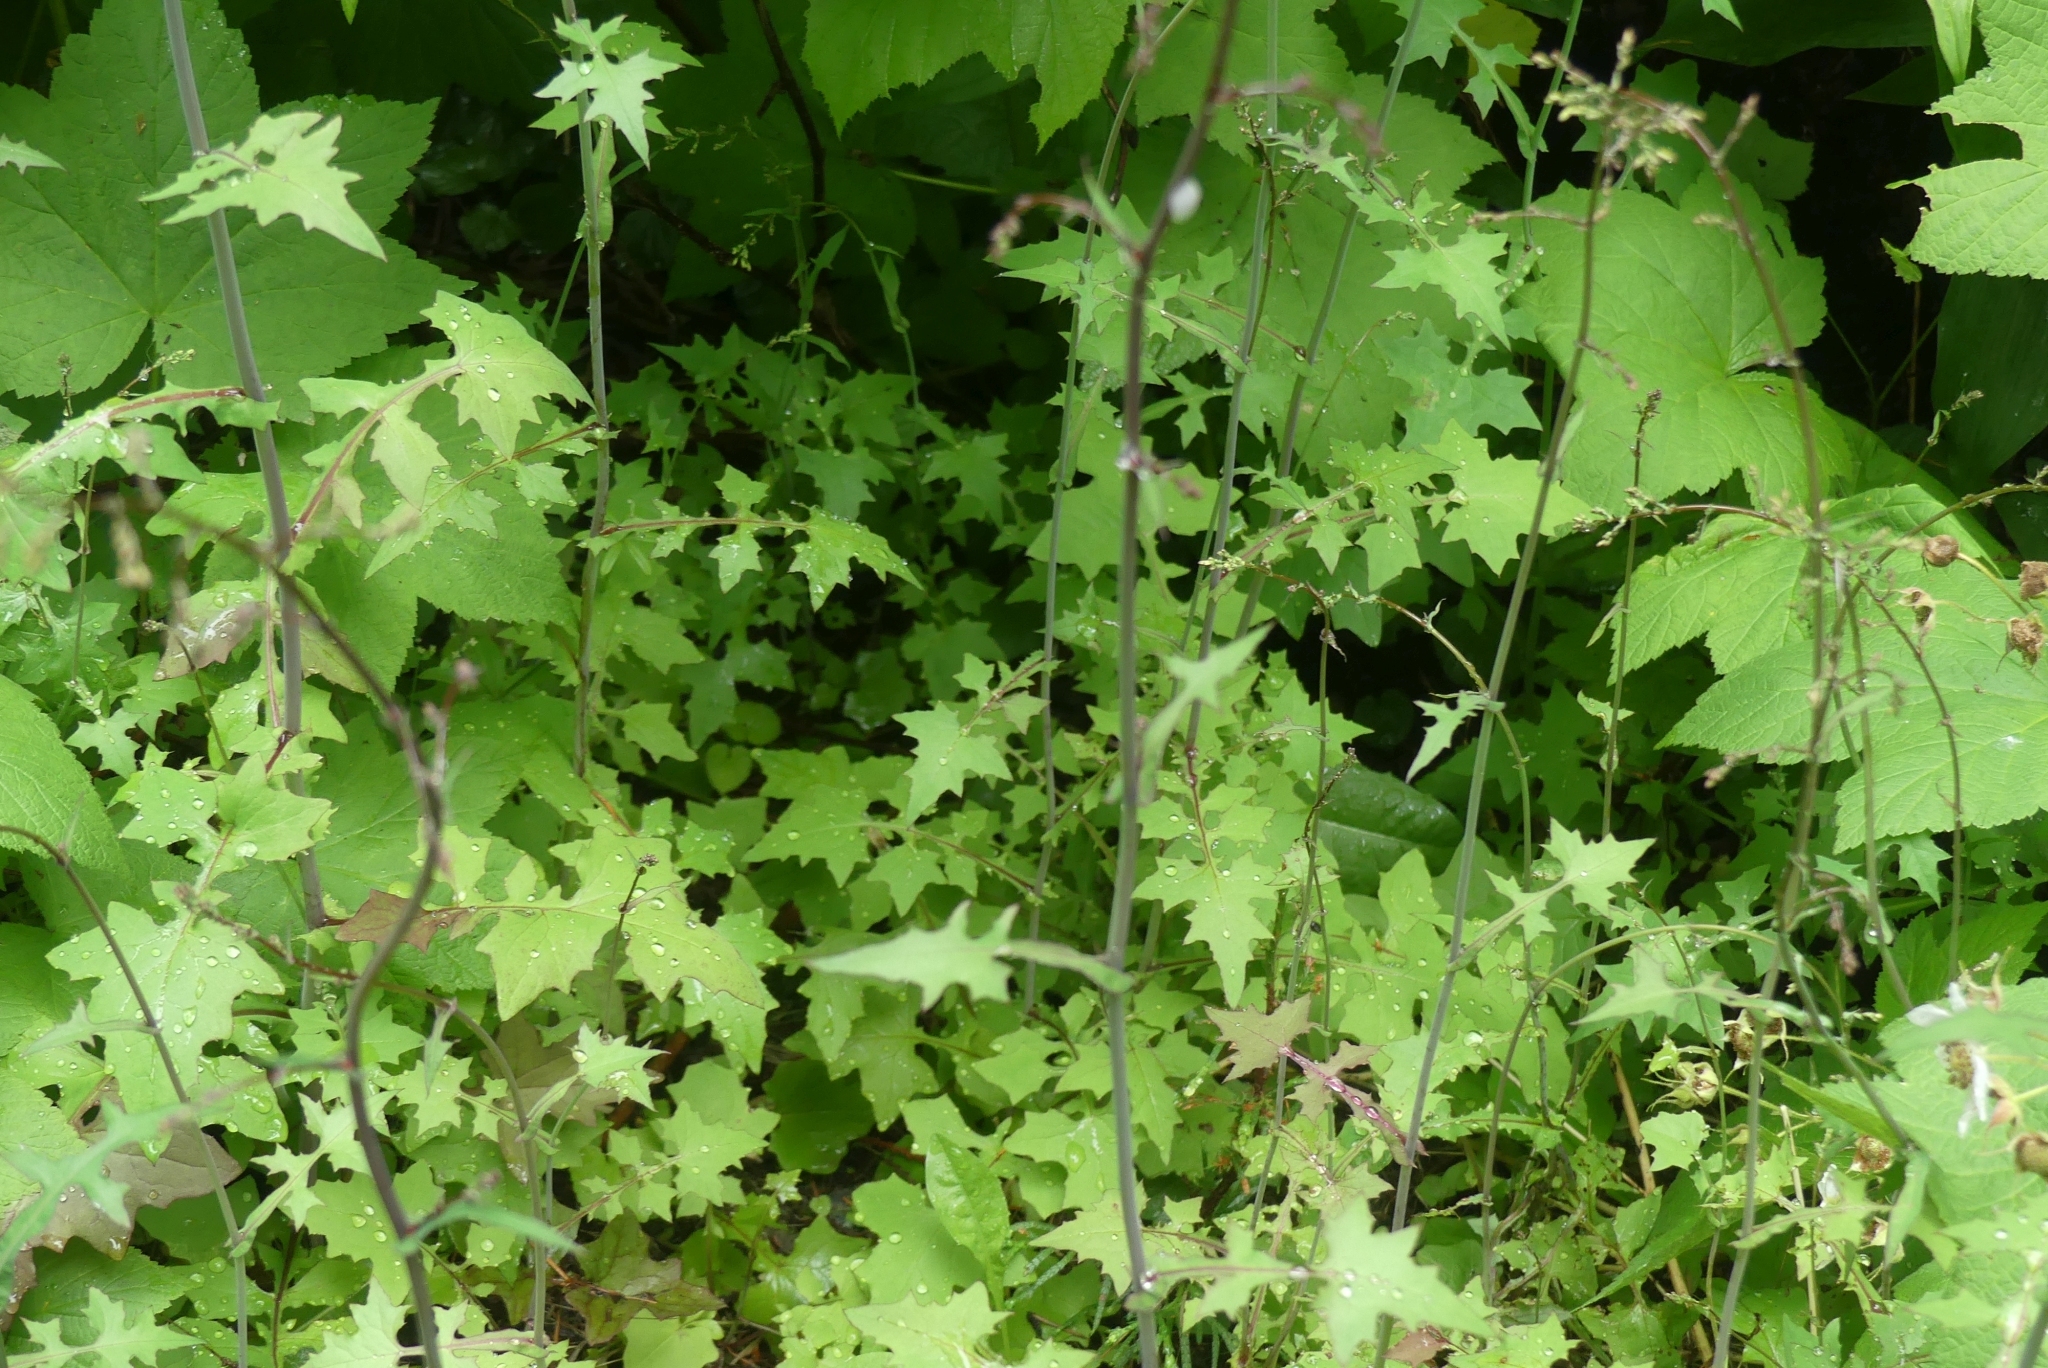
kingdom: Plantae
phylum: Tracheophyta
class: Magnoliopsida
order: Asterales
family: Asteraceae
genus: Mycelis
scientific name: Mycelis muralis
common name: Wall lettuce
